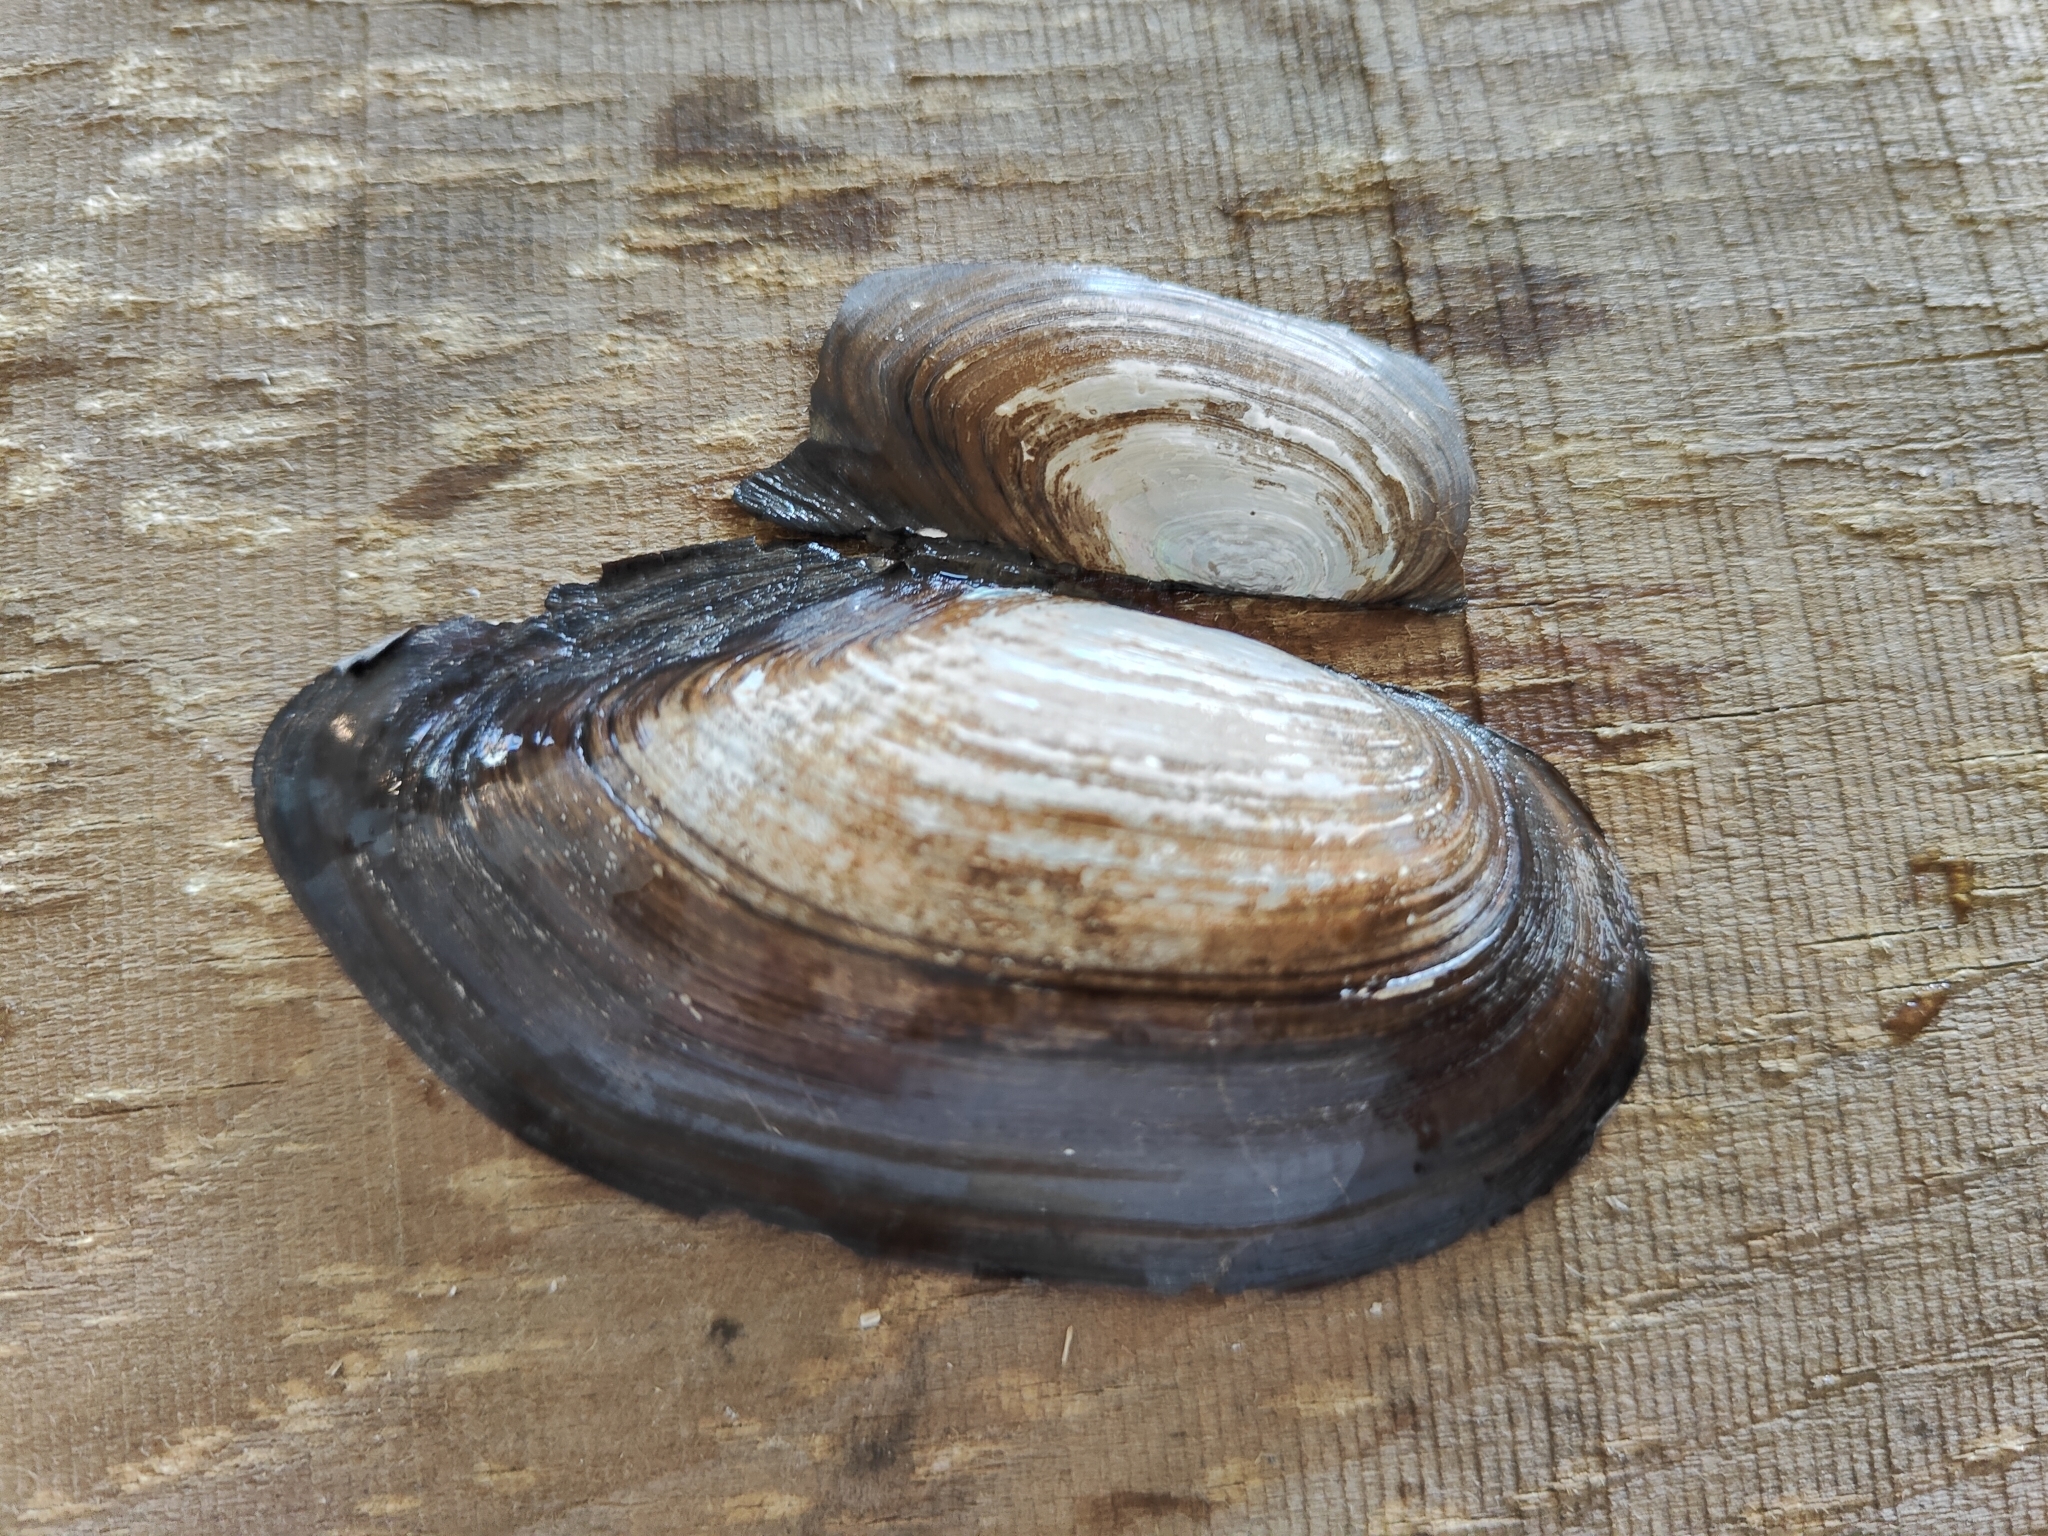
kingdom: Animalia
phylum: Mollusca
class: Bivalvia
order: Unionida
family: Unionidae
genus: Utterbackia
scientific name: Utterbackia imbecillis
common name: Paper pondshell
